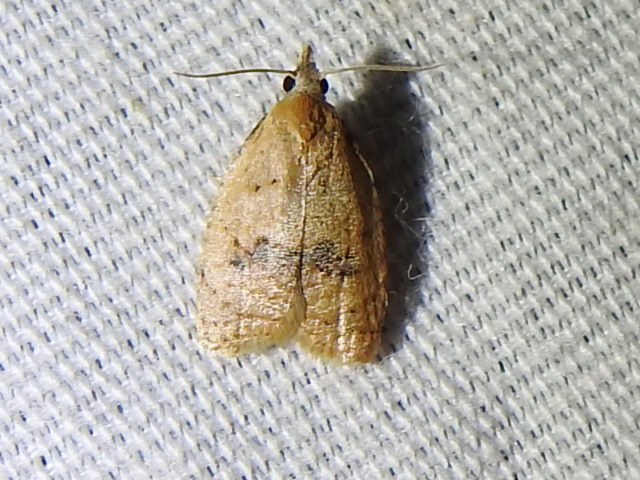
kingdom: Animalia
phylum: Arthropoda
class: Insecta
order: Lepidoptera
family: Tortricidae
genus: Sparganothoides
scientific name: Sparganothoides lentiginosana
